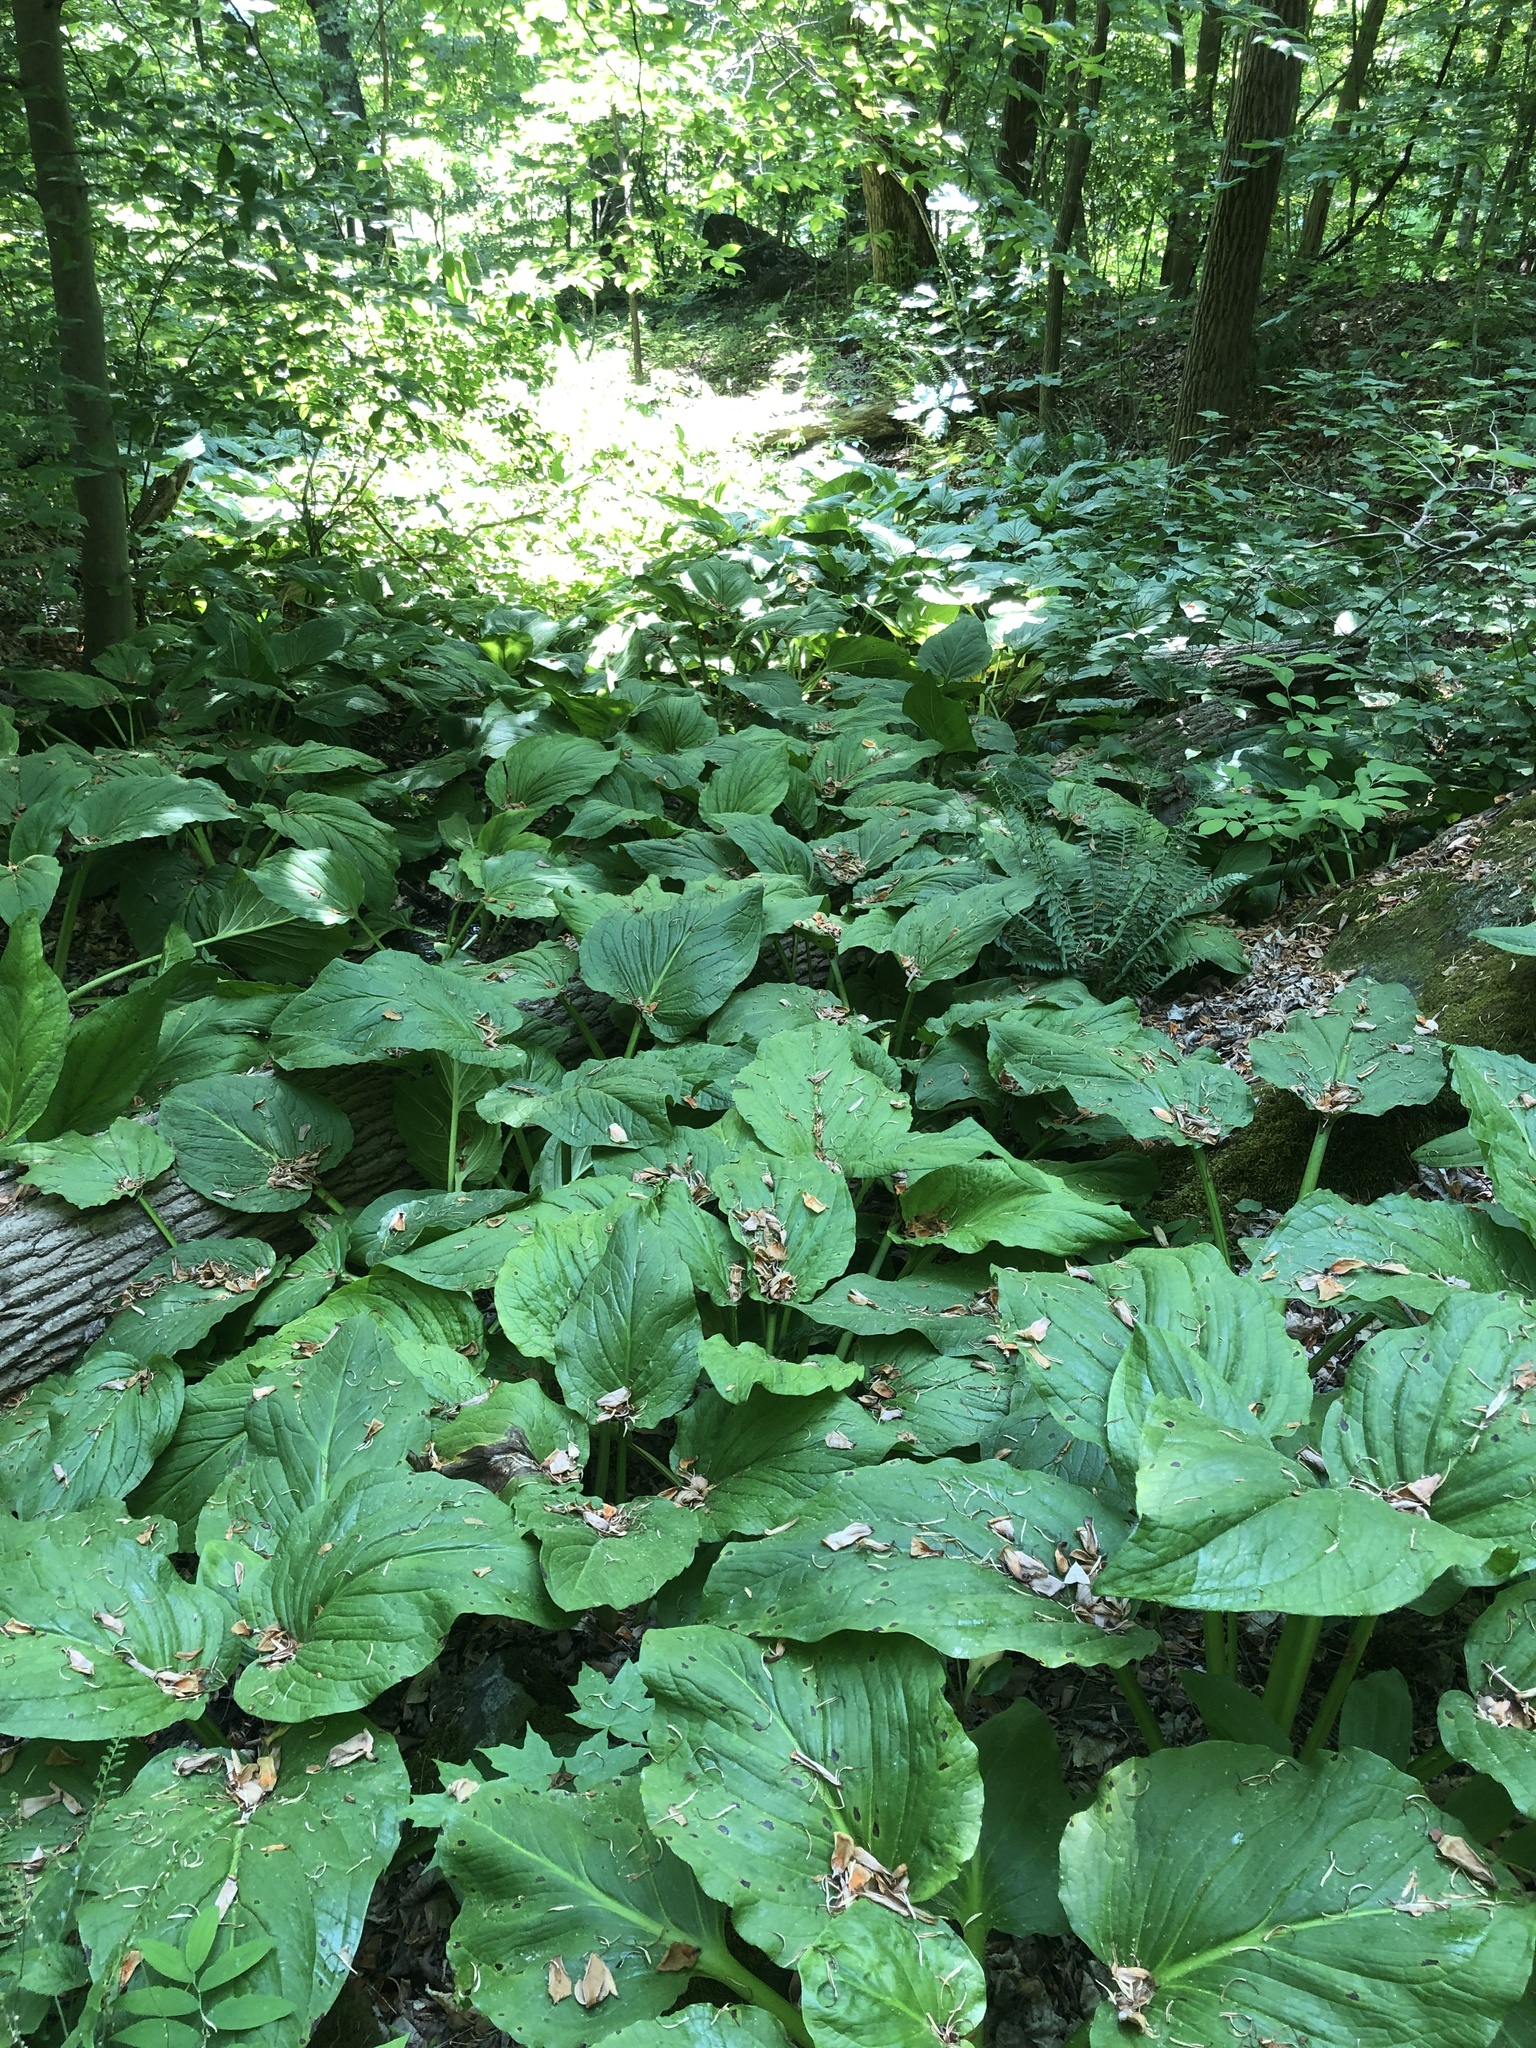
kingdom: Plantae
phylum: Tracheophyta
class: Liliopsida
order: Alismatales
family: Araceae
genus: Symplocarpus
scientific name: Symplocarpus foetidus
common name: Eastern skunk cabbage
